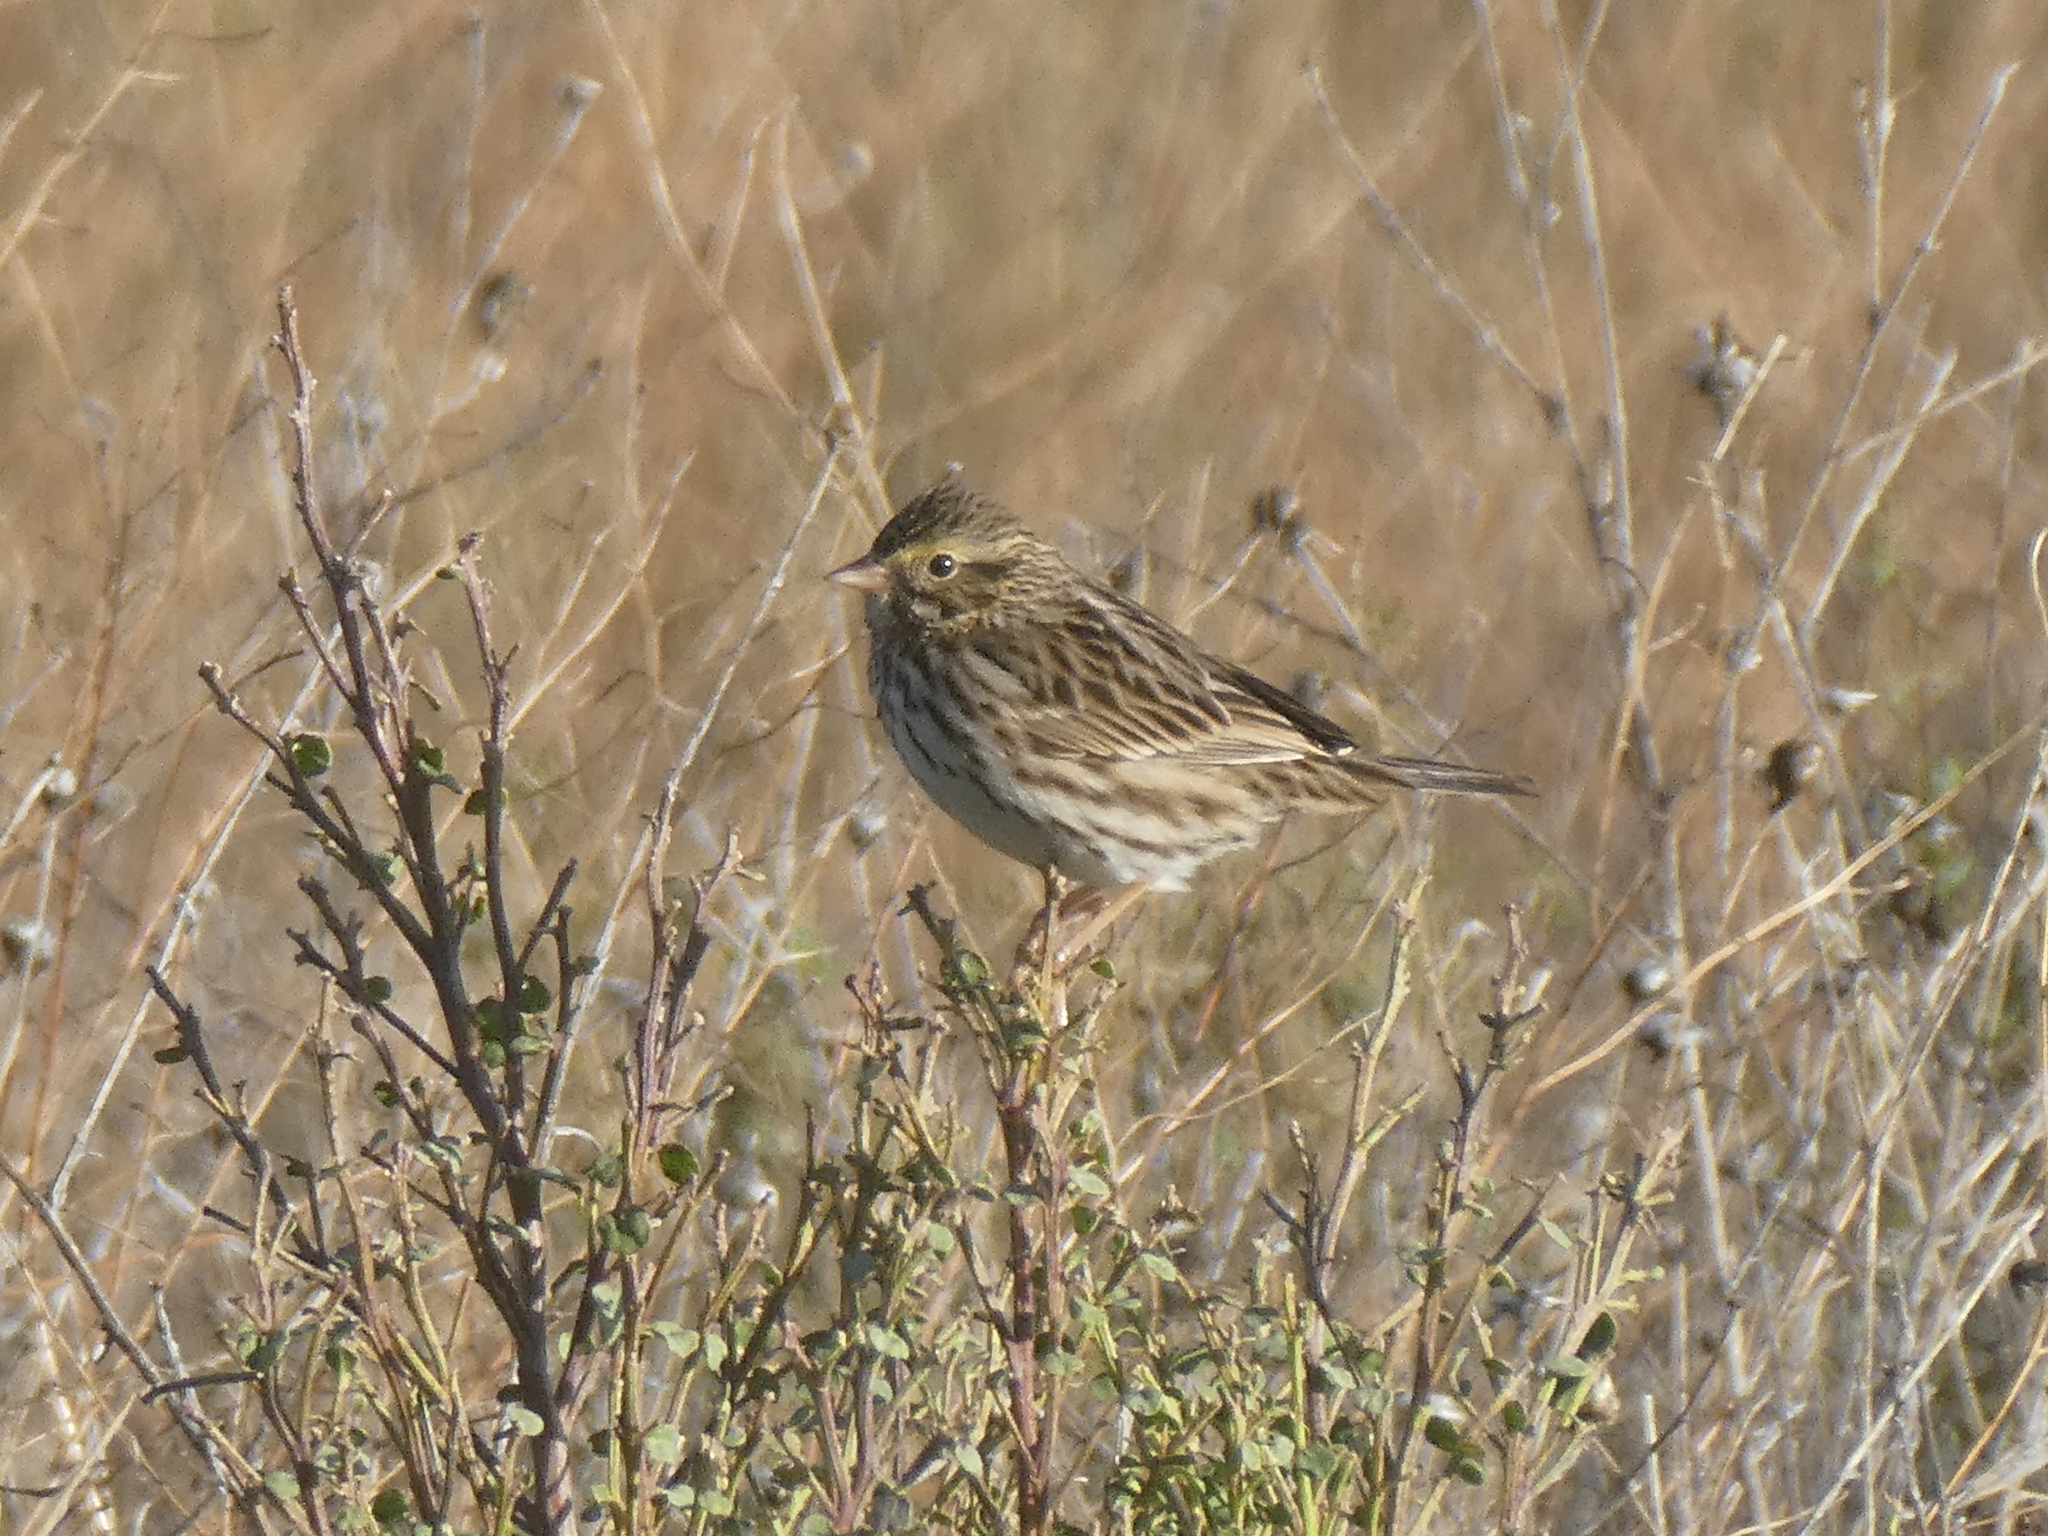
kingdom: Animalia
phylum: Chordata
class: Aves
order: Passeriformes
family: Passerellidae
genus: Passerculus
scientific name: Passerculus sandwichensis
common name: Savannah sparrow
